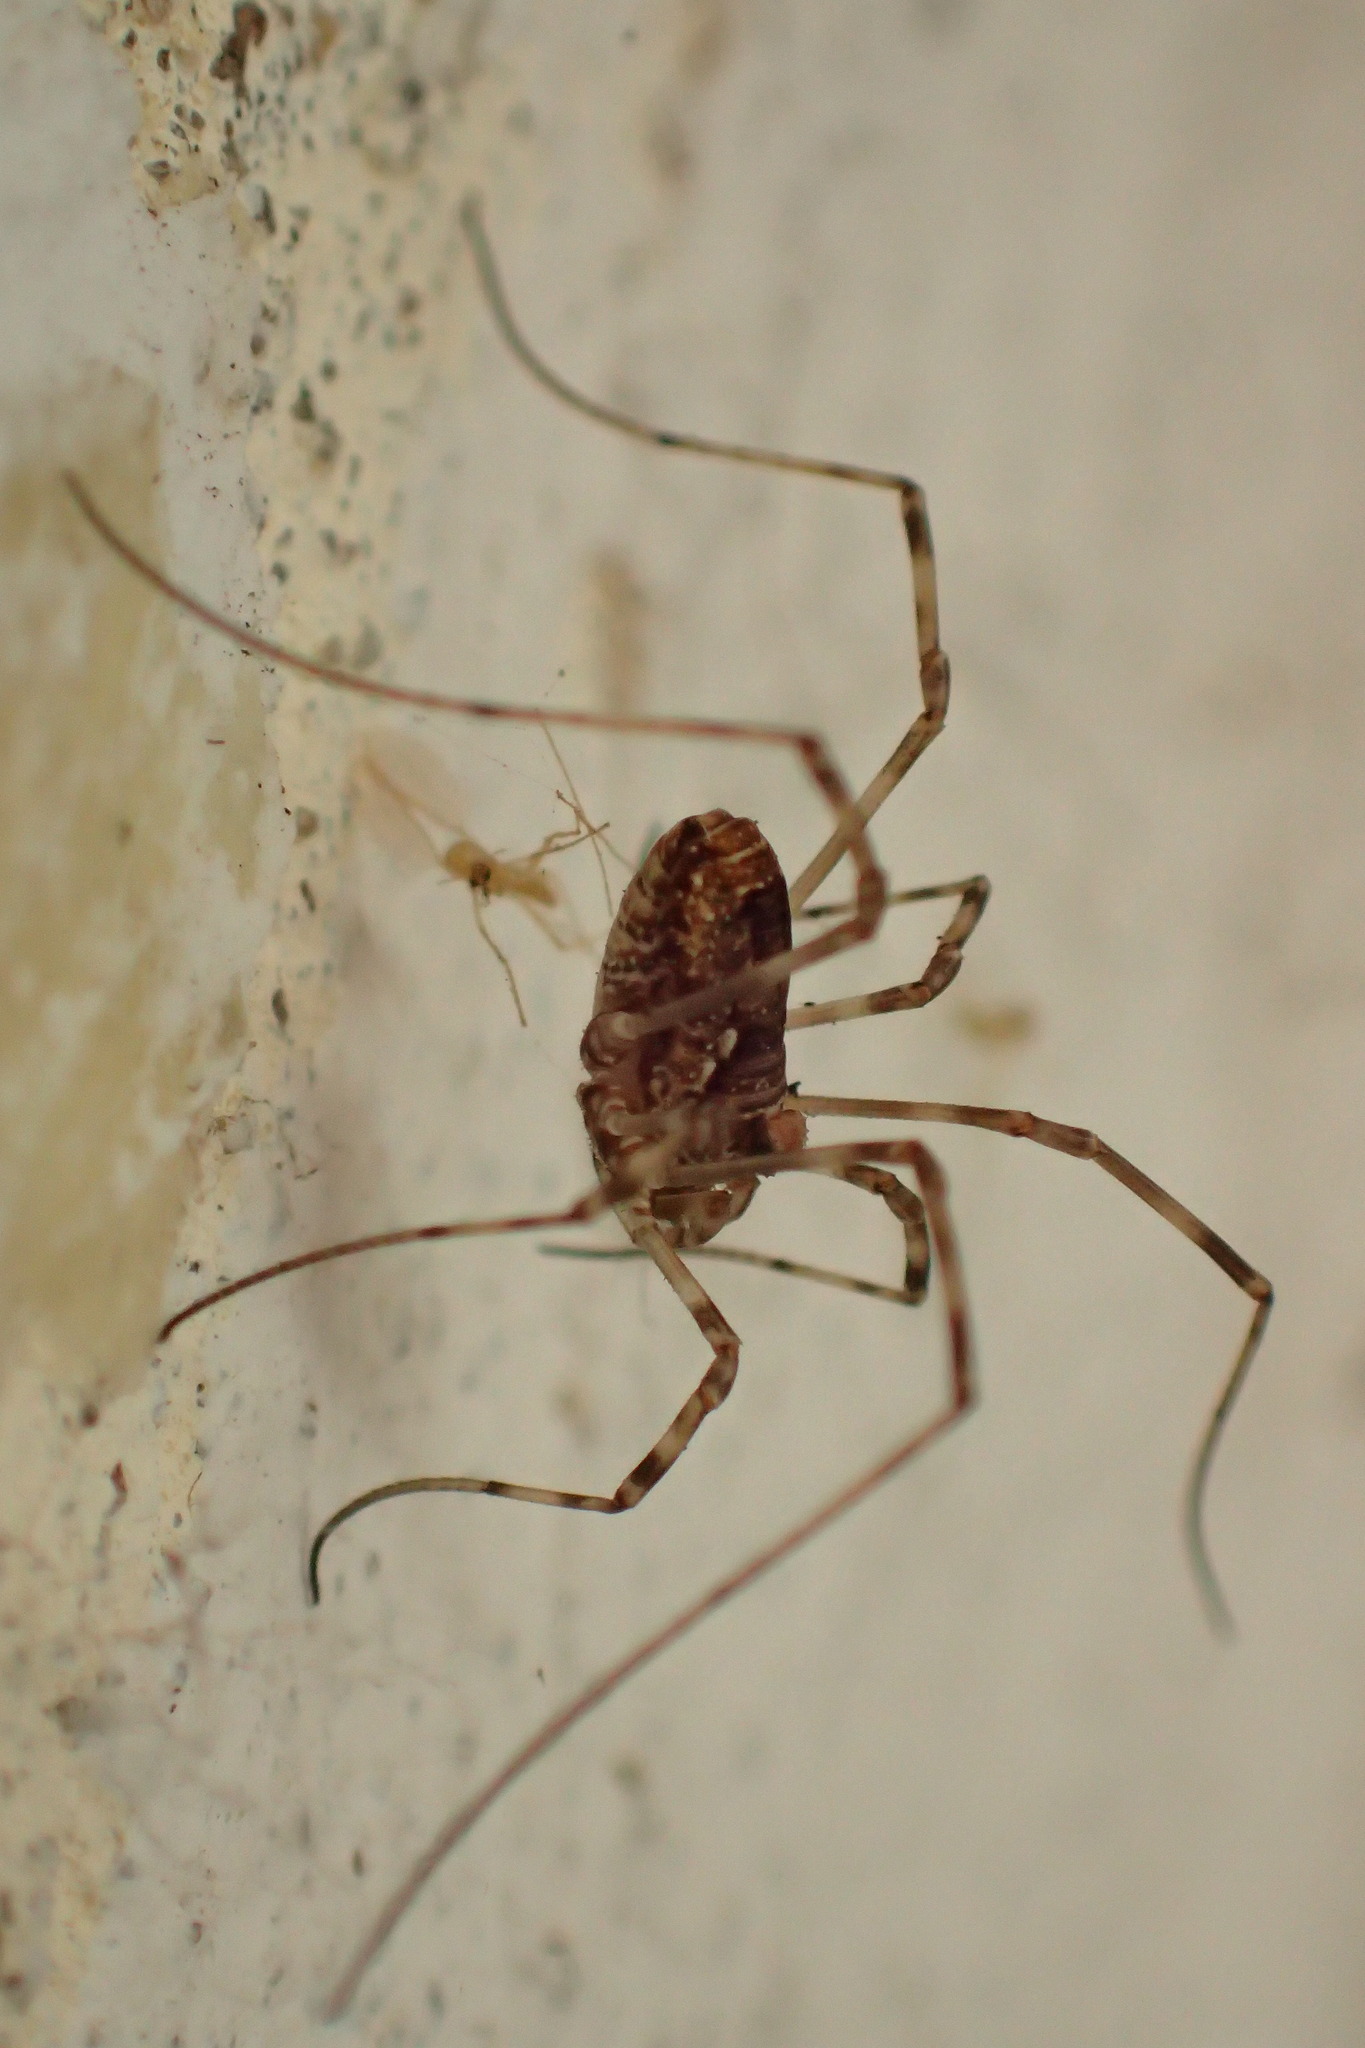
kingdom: Animalia
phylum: Arthropoda
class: Arachnida
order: Opiliones
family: Phalangiidae
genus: Platybunus
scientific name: Platybunus pinetorum
